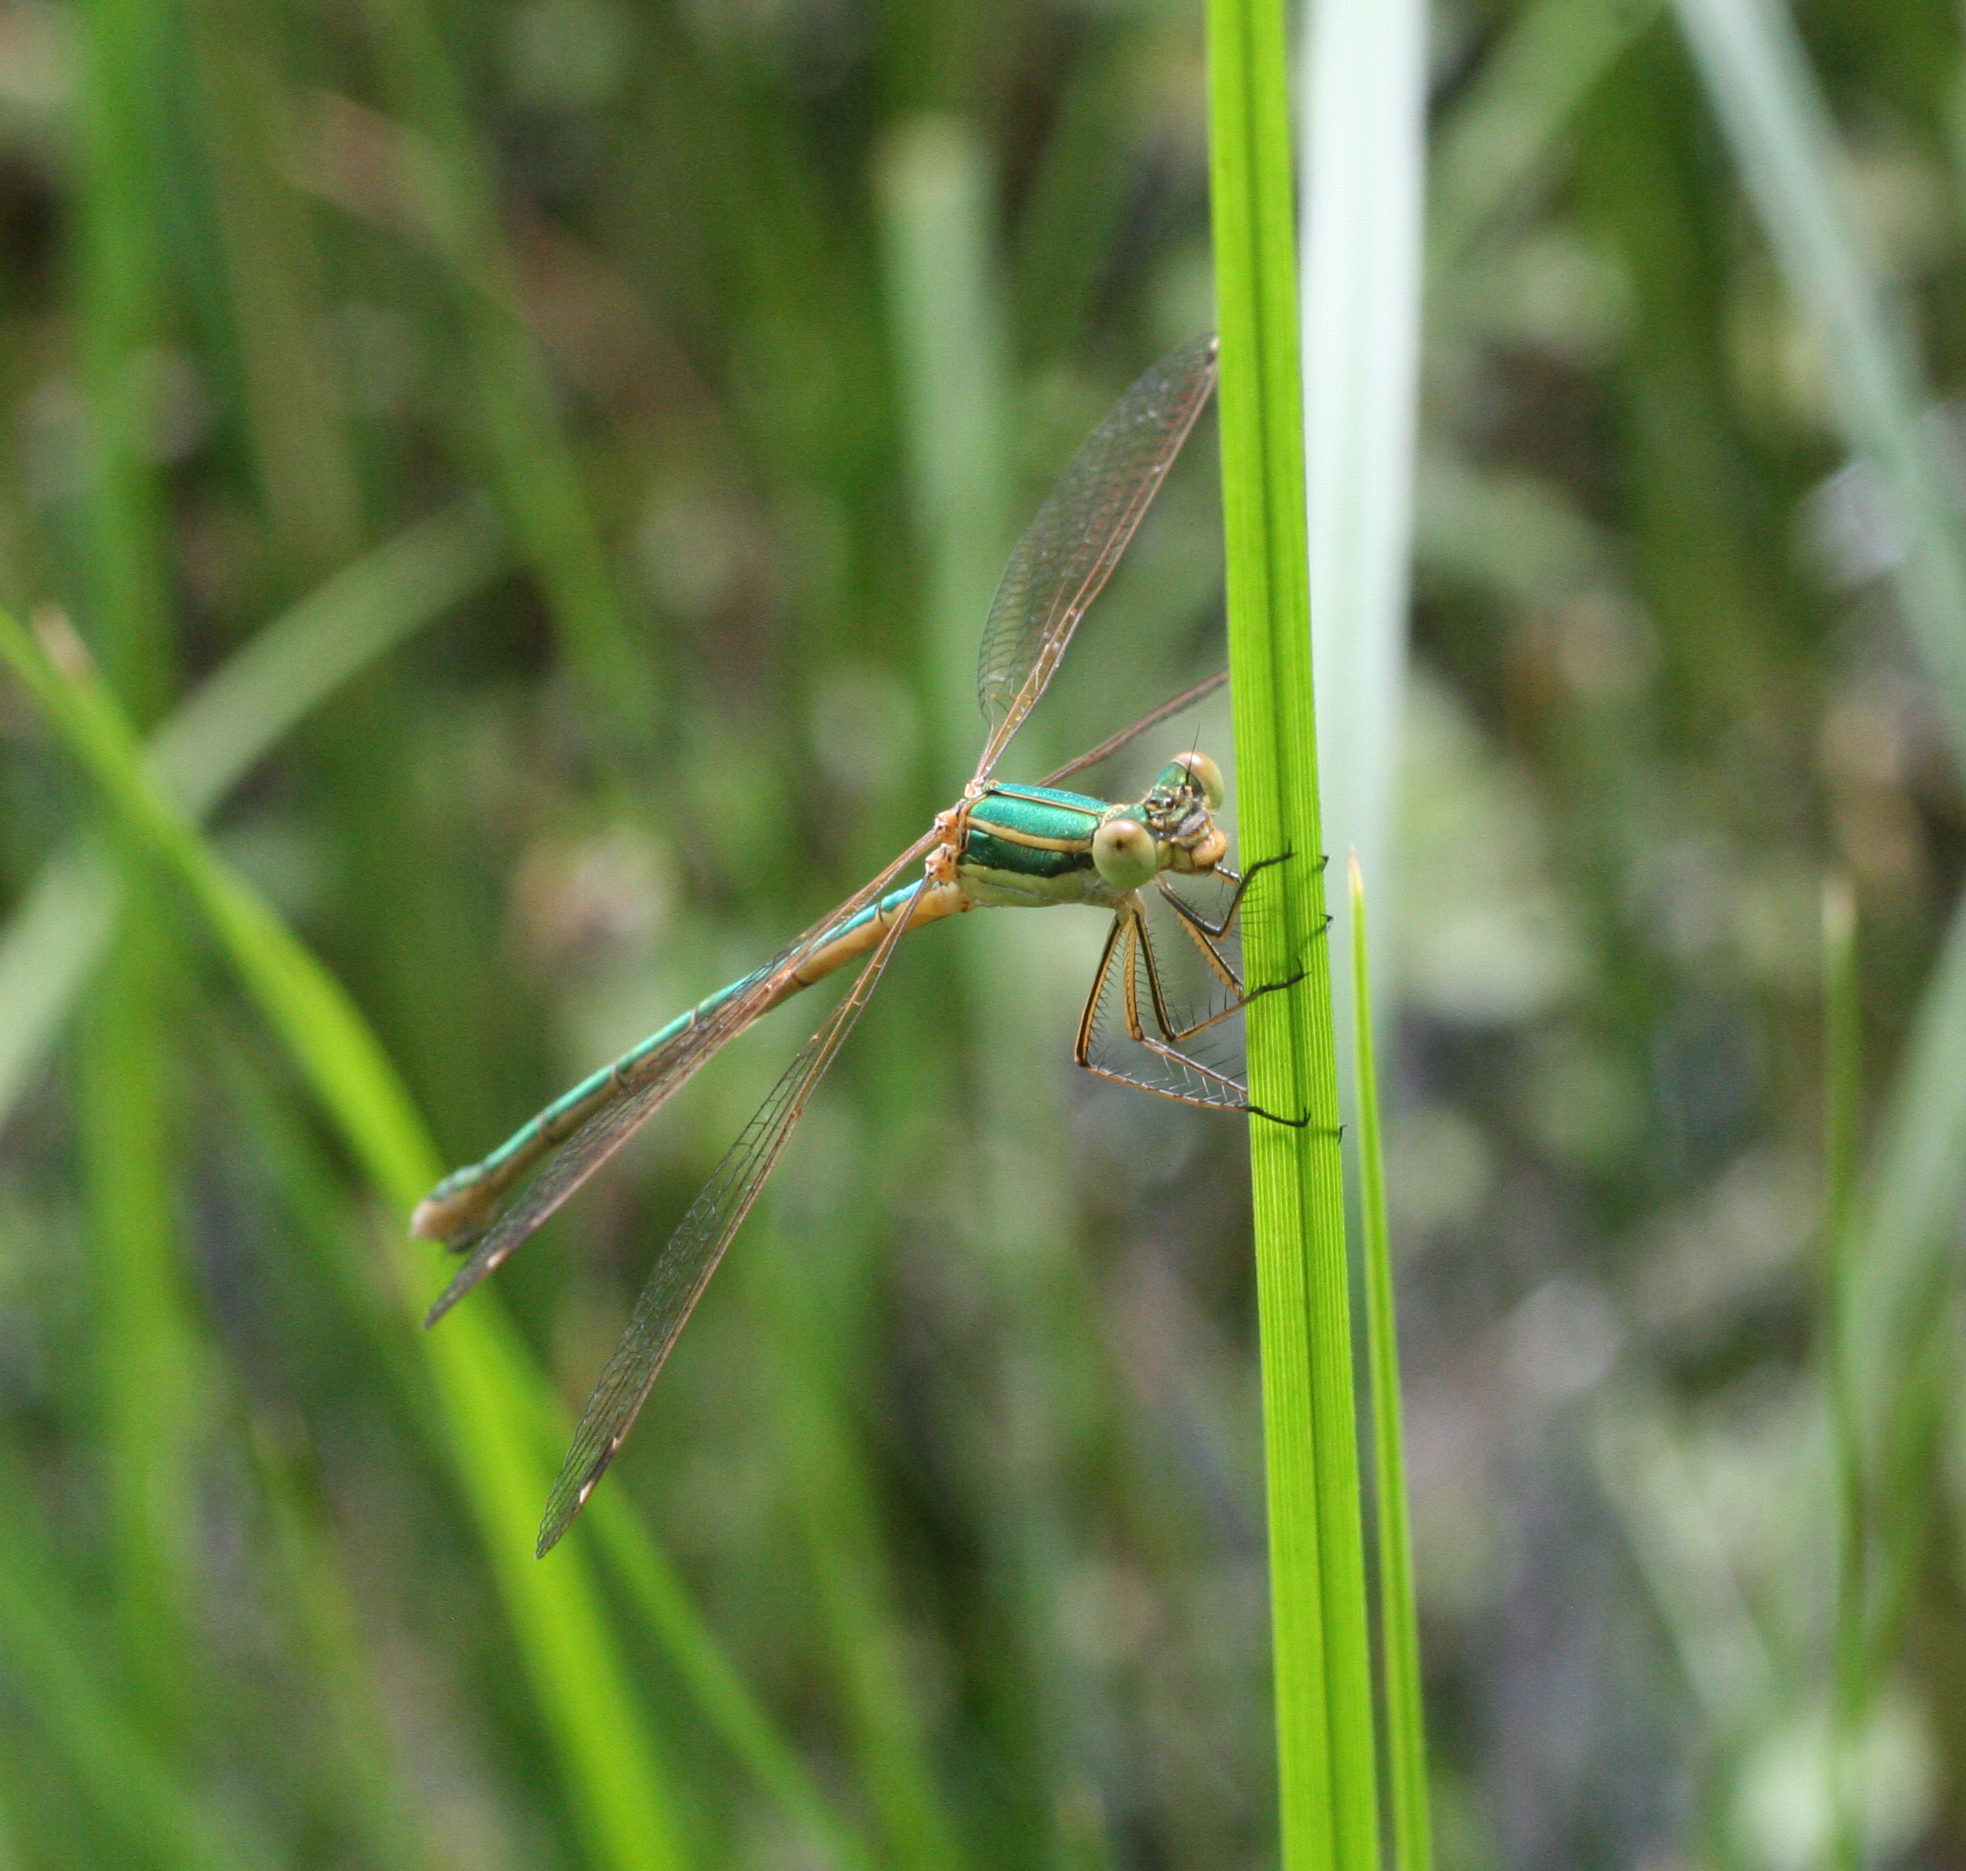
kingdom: Animalia
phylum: Arthropoda
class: Insecta
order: Odonata
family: Lestidae
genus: Lestes
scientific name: Lestes barbarus
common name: Migrant spreadwing
